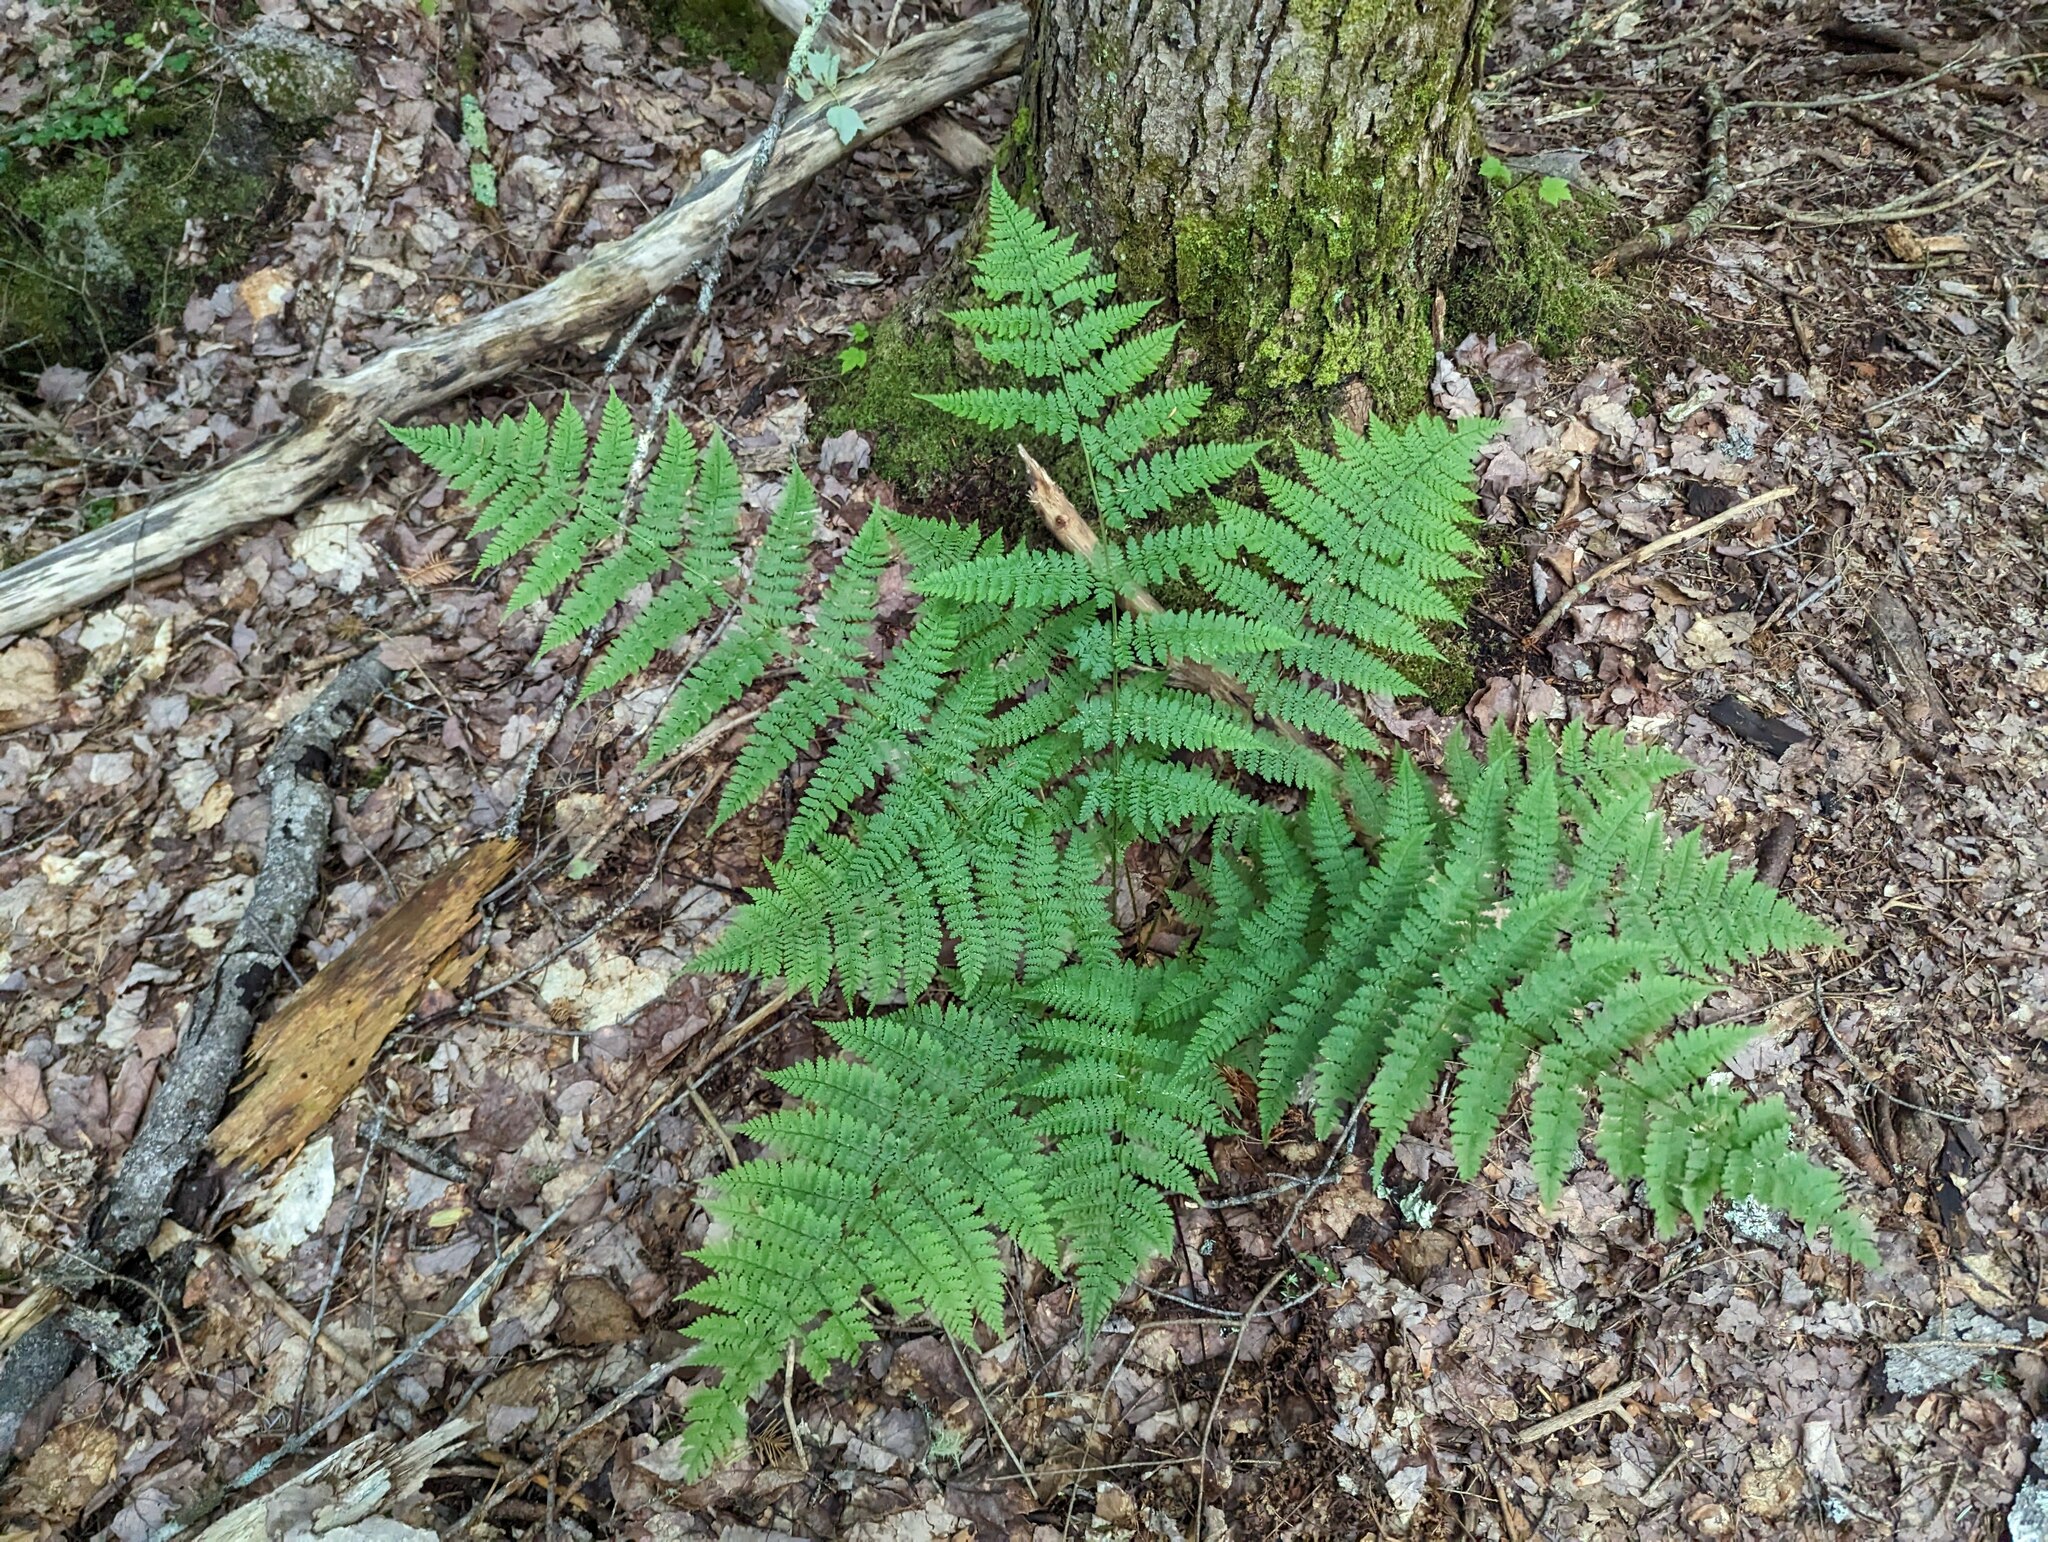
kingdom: Plantae
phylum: Tracheophyta
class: Polypodiopsida
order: Polypodiales
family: Dryopteridaceae
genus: Dryopteris
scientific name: Dryopteris intermedia
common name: Evergreen wood fern
